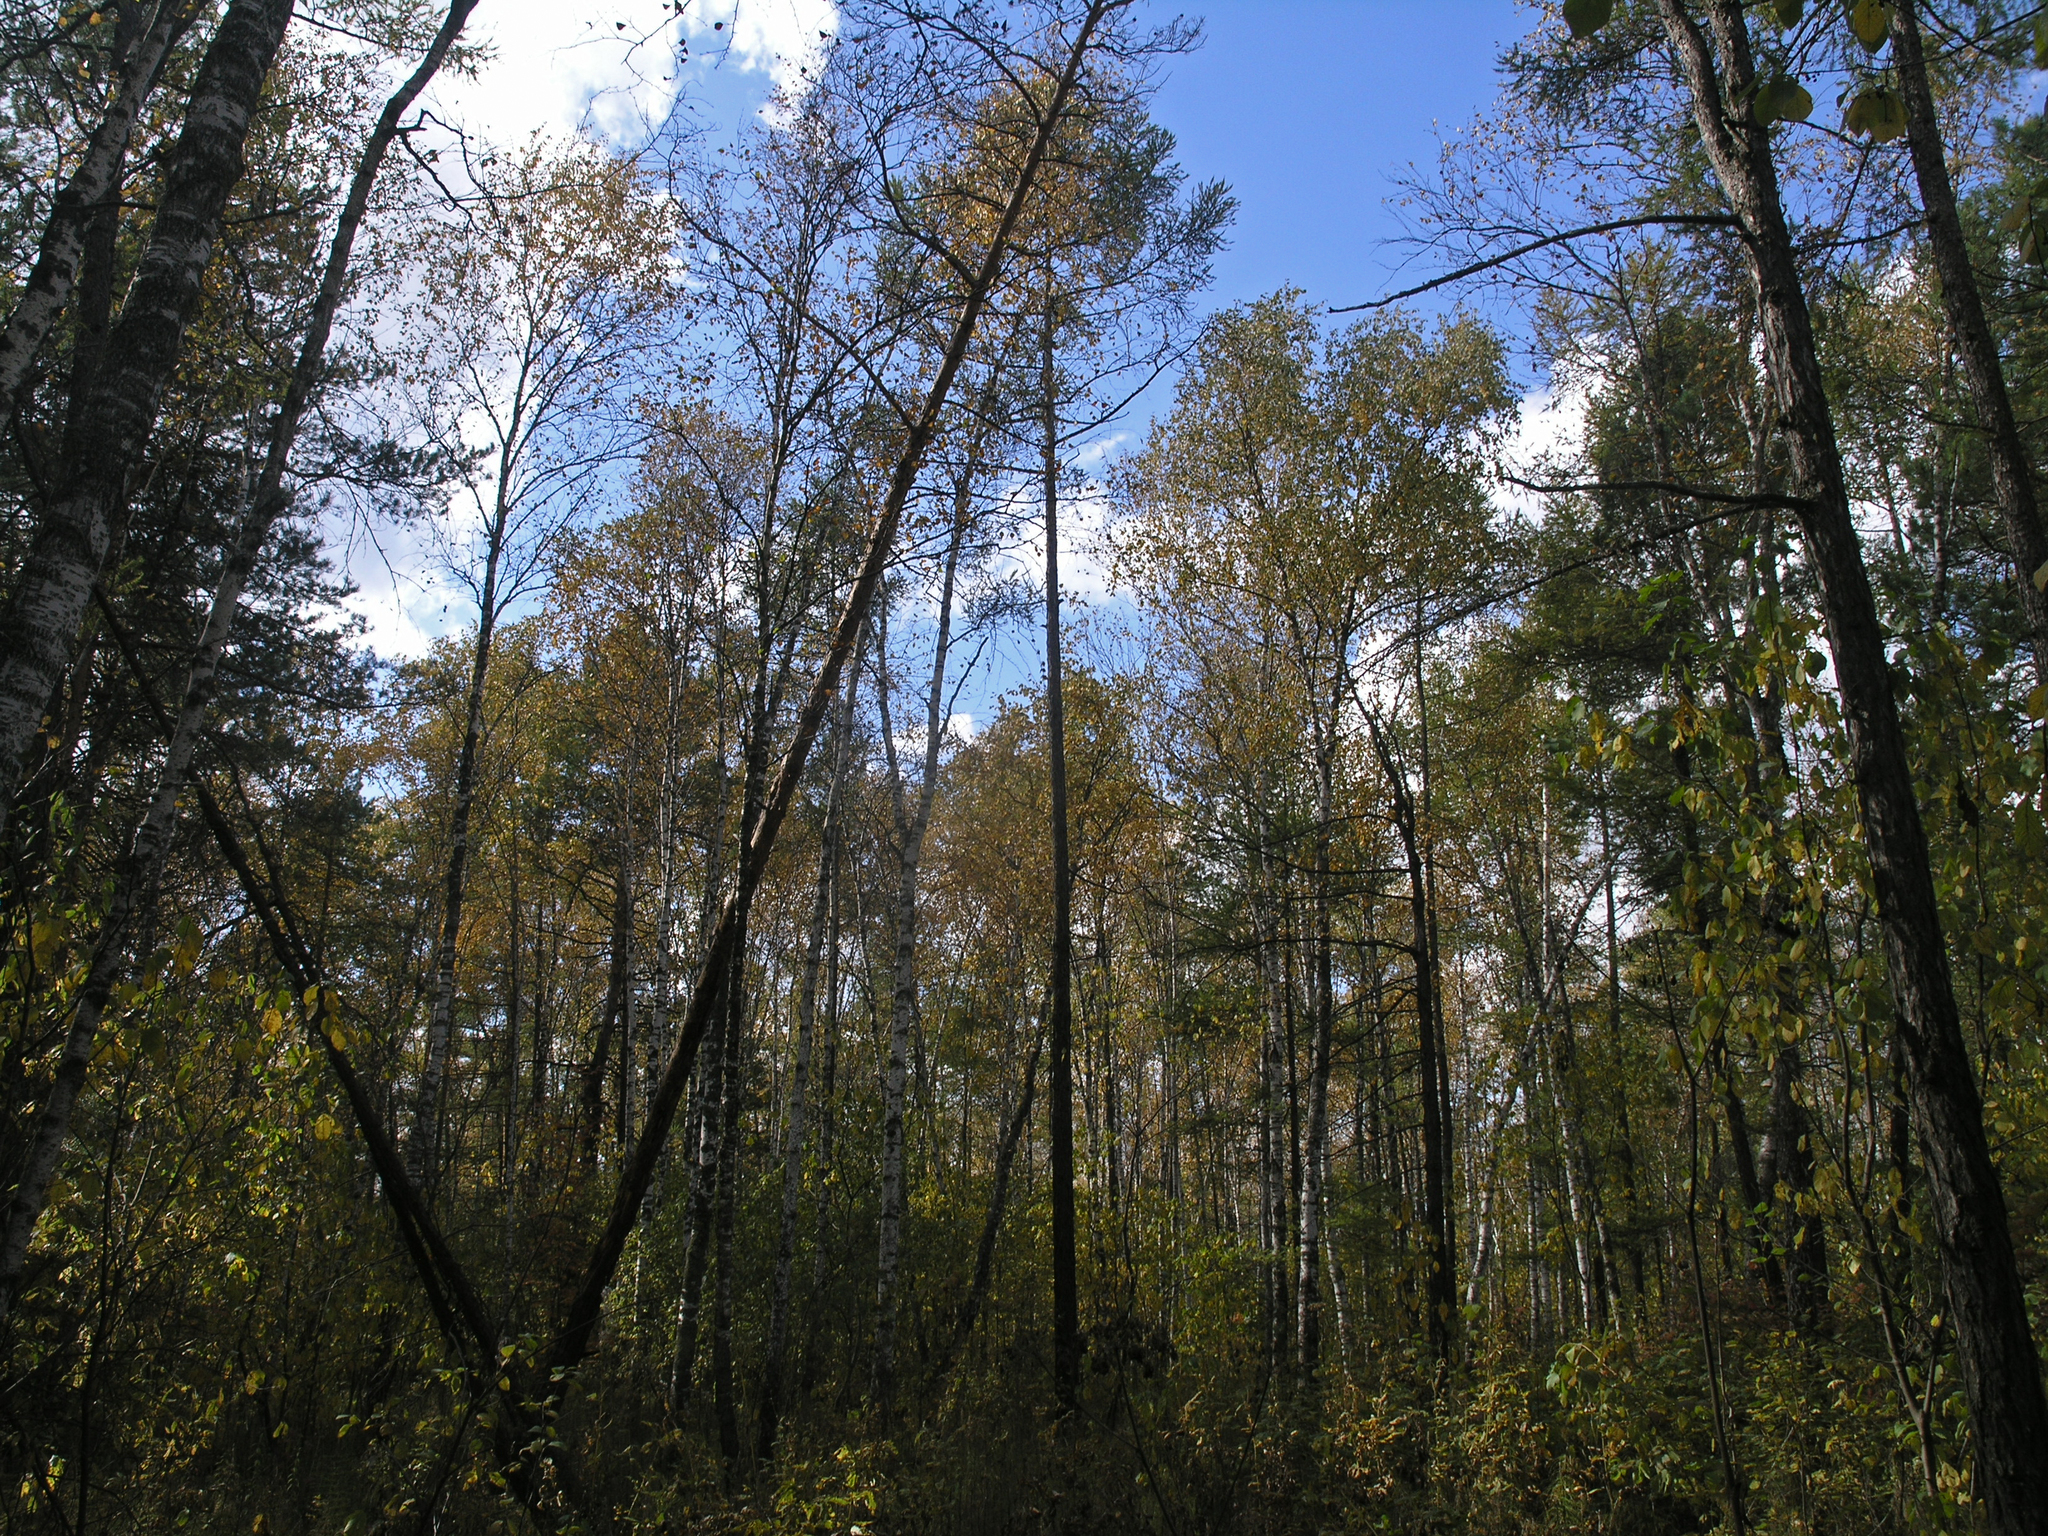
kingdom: Plantae
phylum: Tracheophyta
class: Pinopsida
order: Pinales
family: Pinaceae
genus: Larix
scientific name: Larix sibirica
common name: Siberian larch
